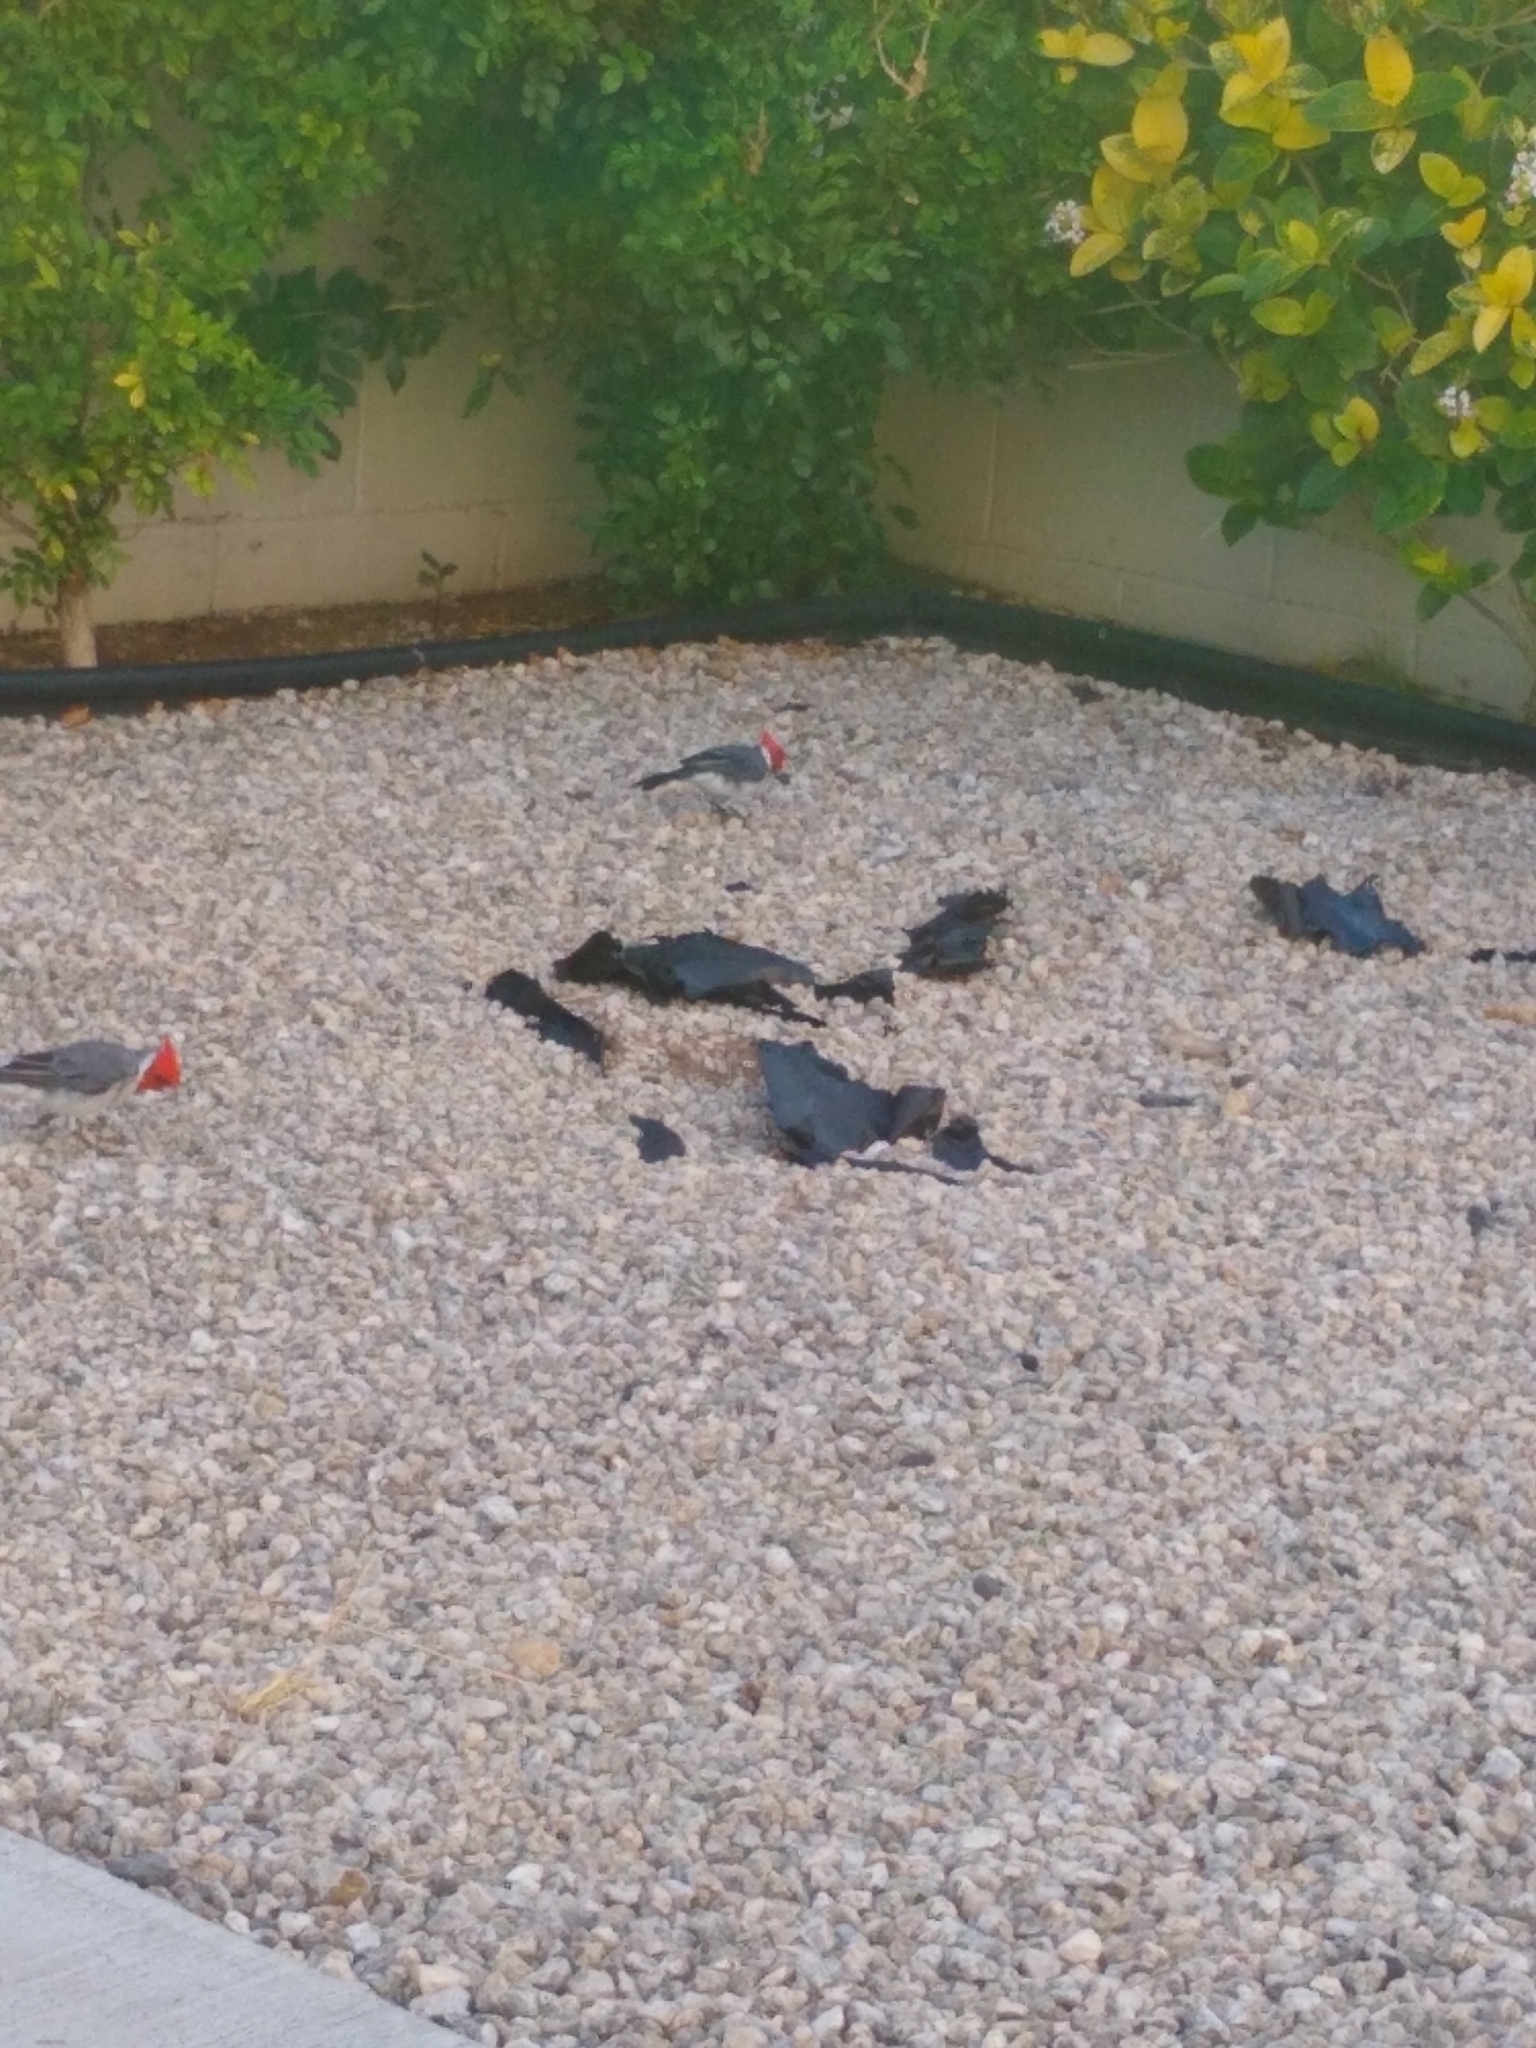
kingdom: Animalia
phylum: Chordata
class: Aves
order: Passeriformes
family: Thraupidae
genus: Paroaria
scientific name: Paroaria coronata
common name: Red-crested cardinal
